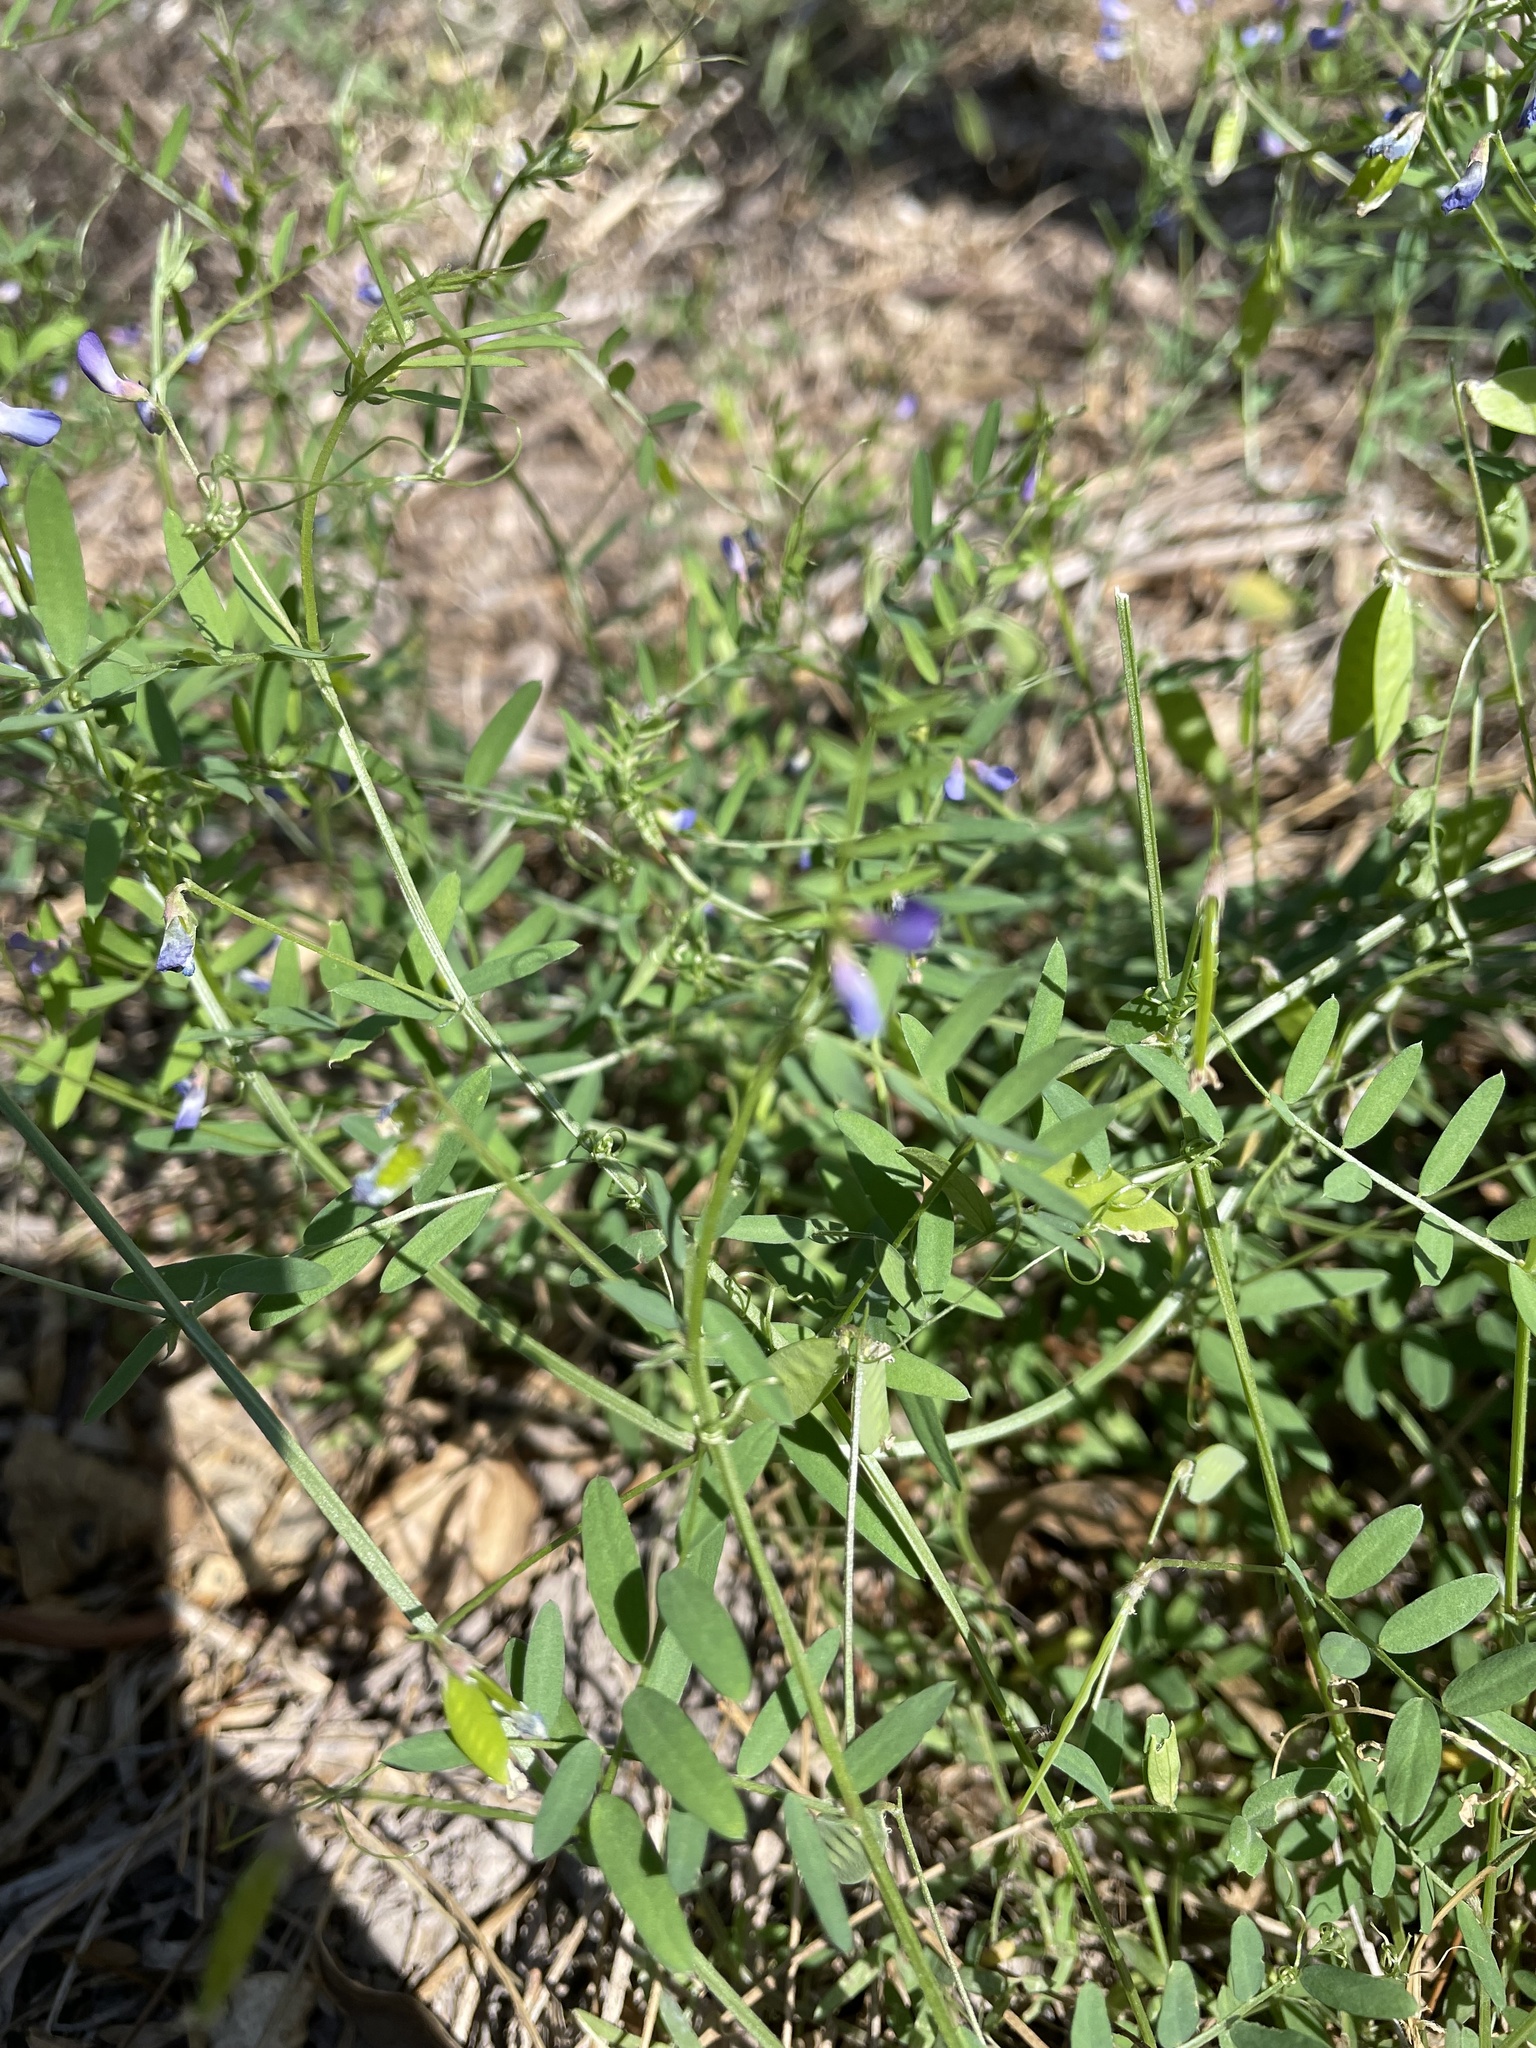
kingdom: Plantae
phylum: Tracheophyta
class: Magnoliopsida
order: Fabales
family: Fabaceae
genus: Vicia
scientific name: Vicia ludoviciana
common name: Louisiana vetch
